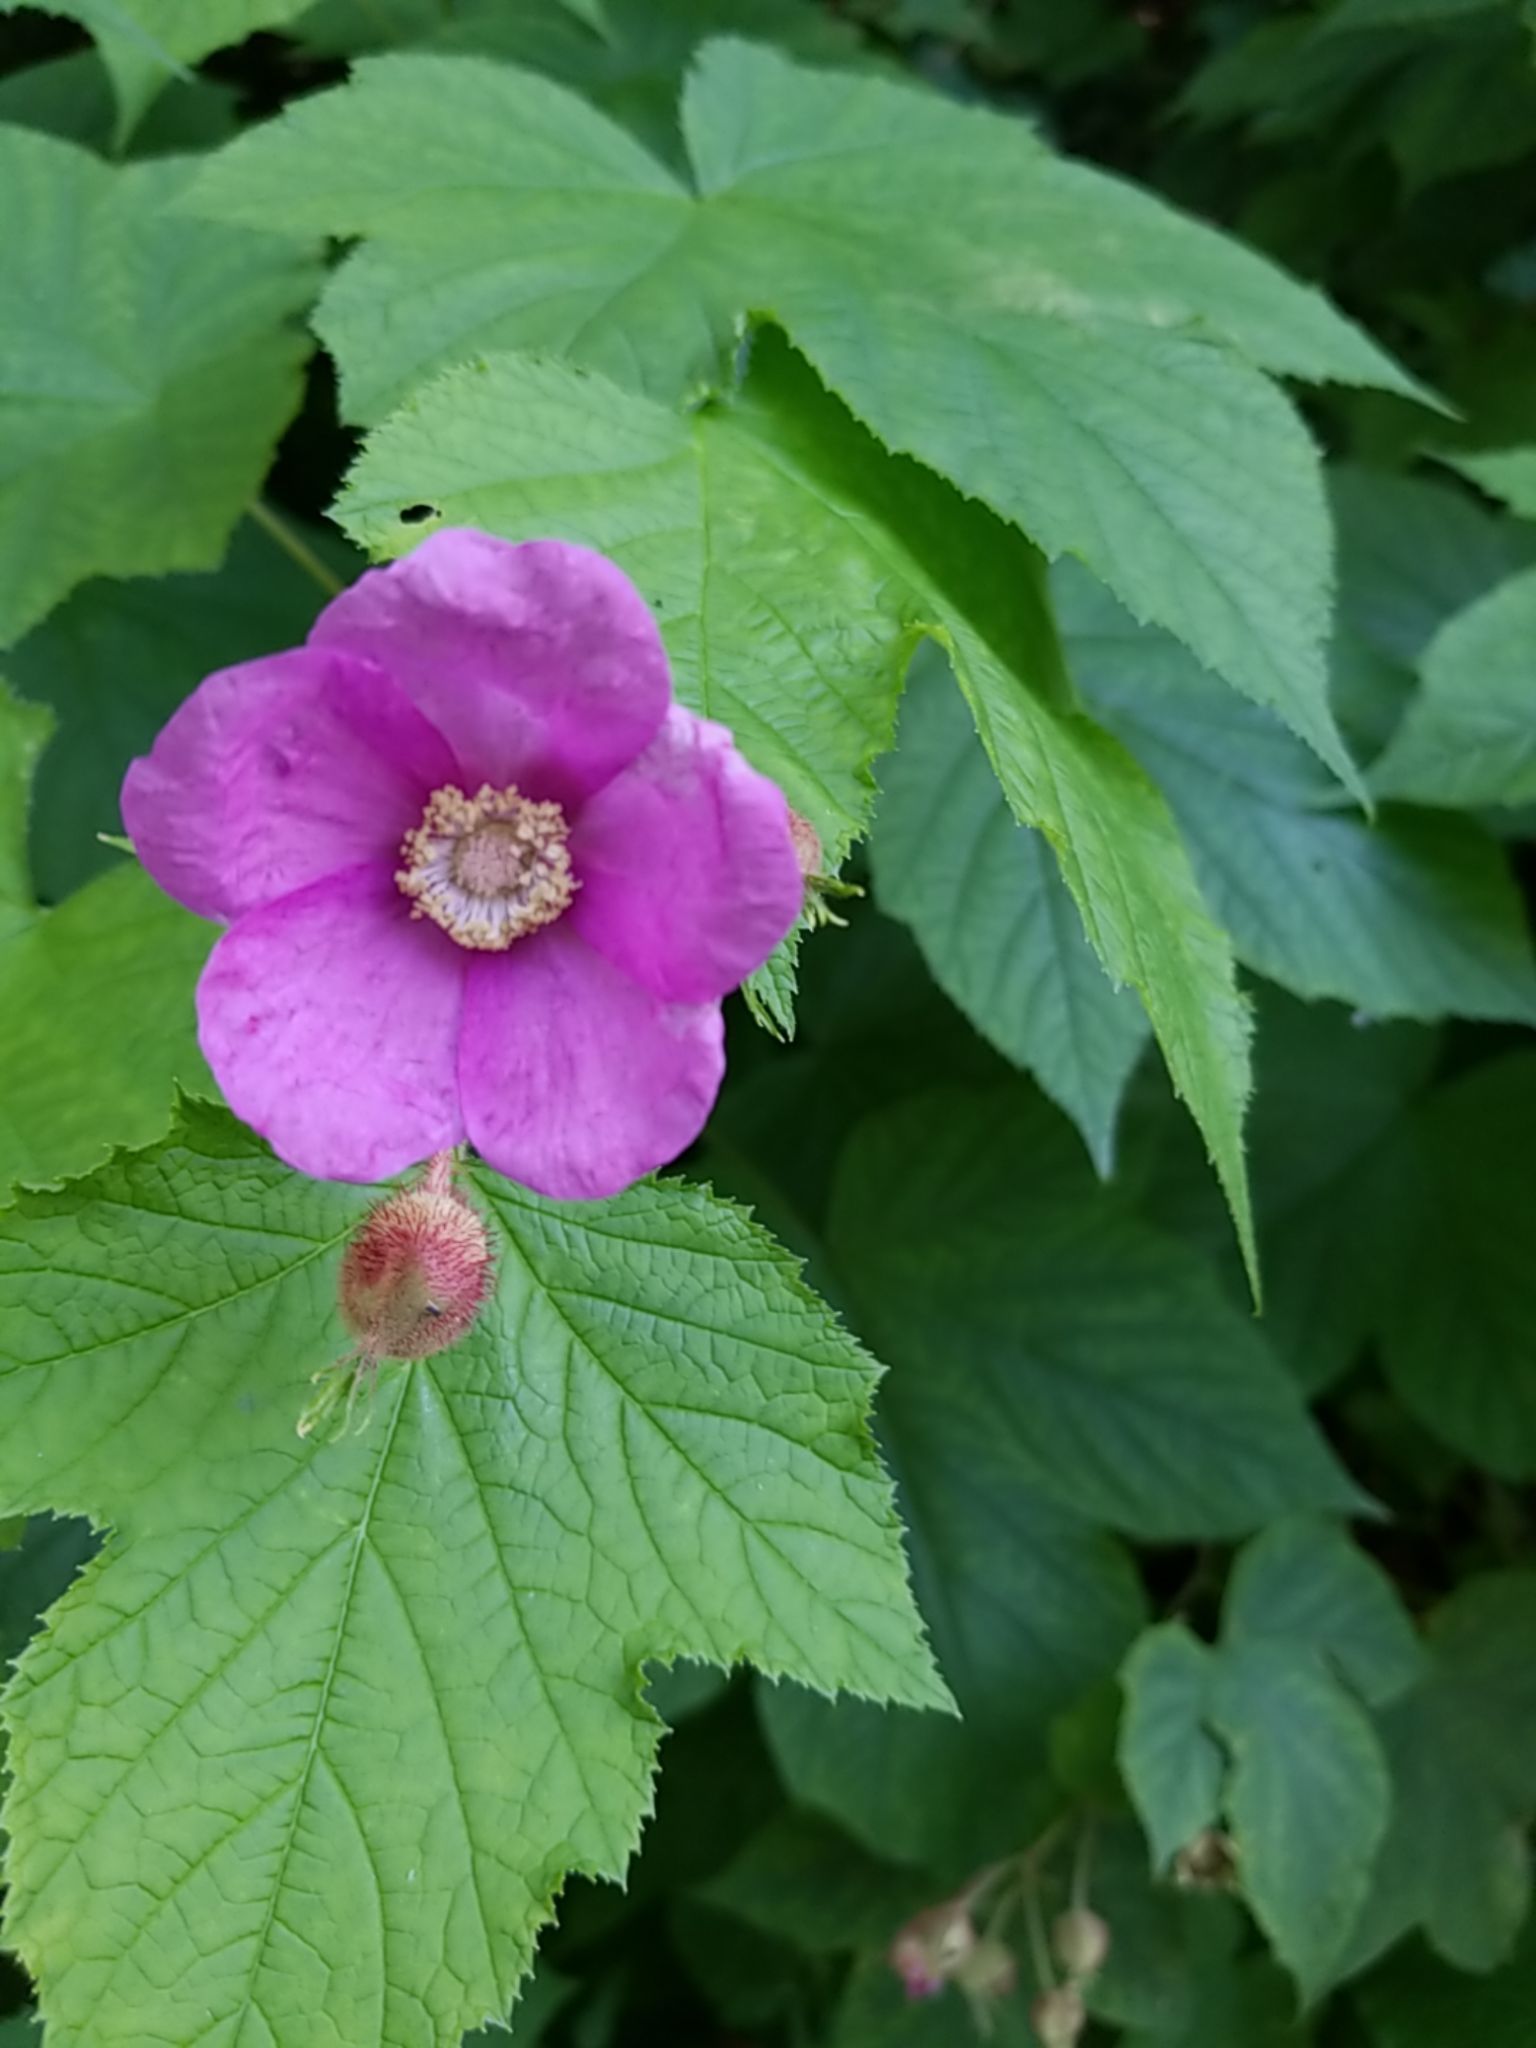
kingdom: Plantae
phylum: Tracheophyta
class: Magnoliopsida
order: Rosales
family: Rosaceae
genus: Rubus
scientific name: Rubus odoratus
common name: Purple-flowered raspberry
